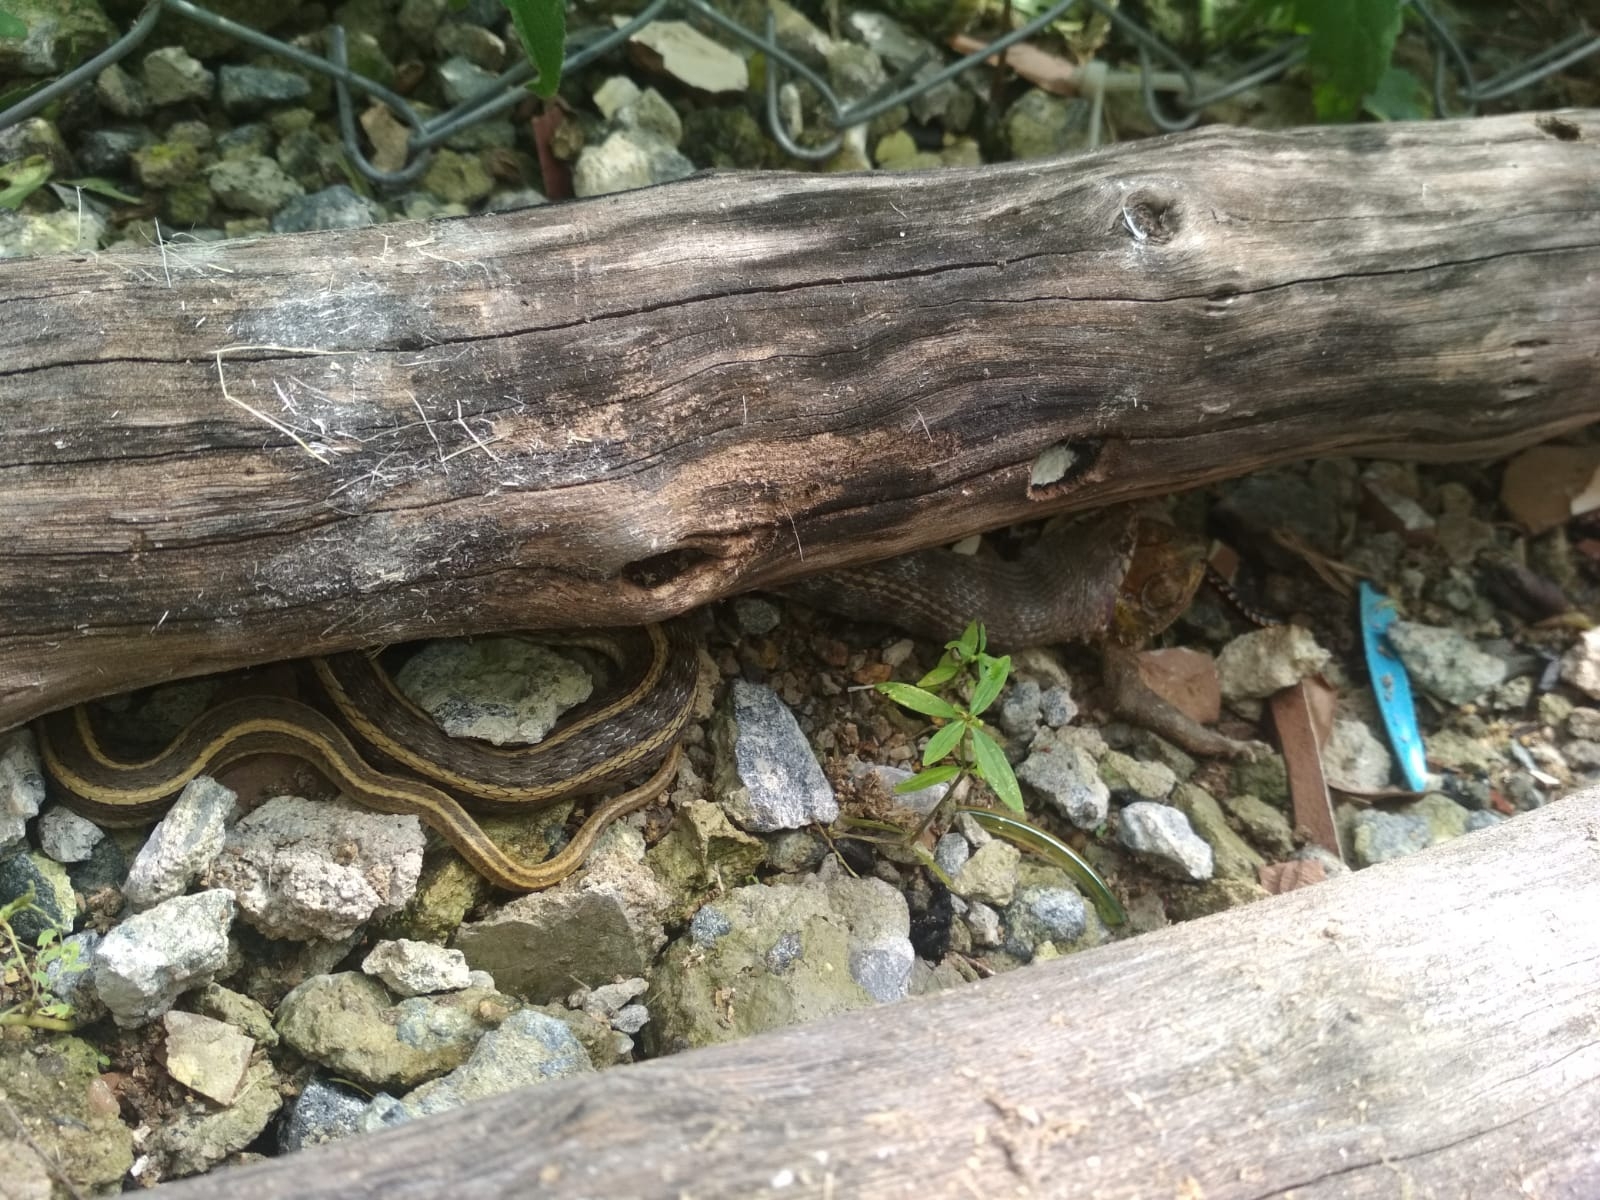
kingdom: Animalia
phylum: Chordata
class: Squamata
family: Colubridae
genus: Amphiesma
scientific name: Amphiesma stolatum
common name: Buff striped keelback
